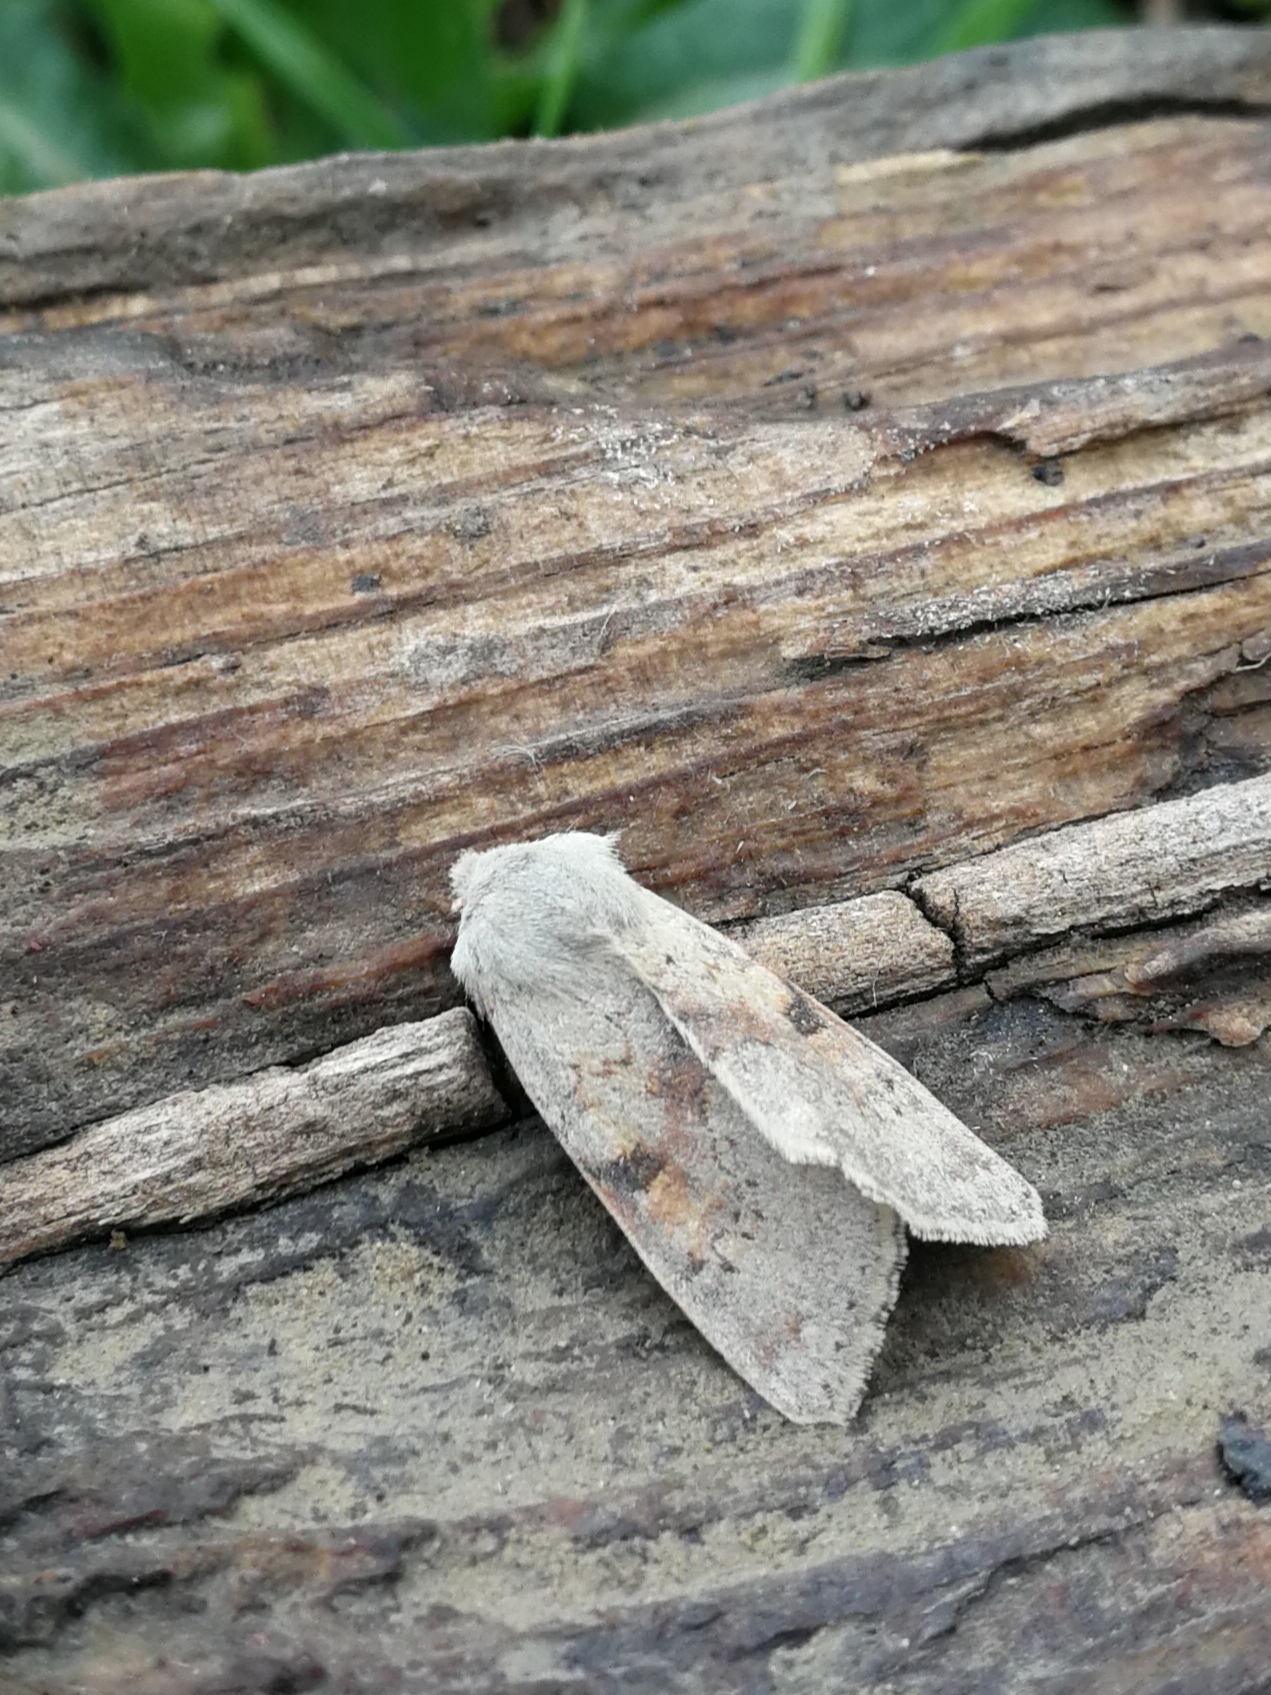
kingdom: Animalia
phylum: Arthropoda
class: Insecta
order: Lepidoptera
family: Noctuidae
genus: Ammopolia
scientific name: Ammopolia witzenmanni
